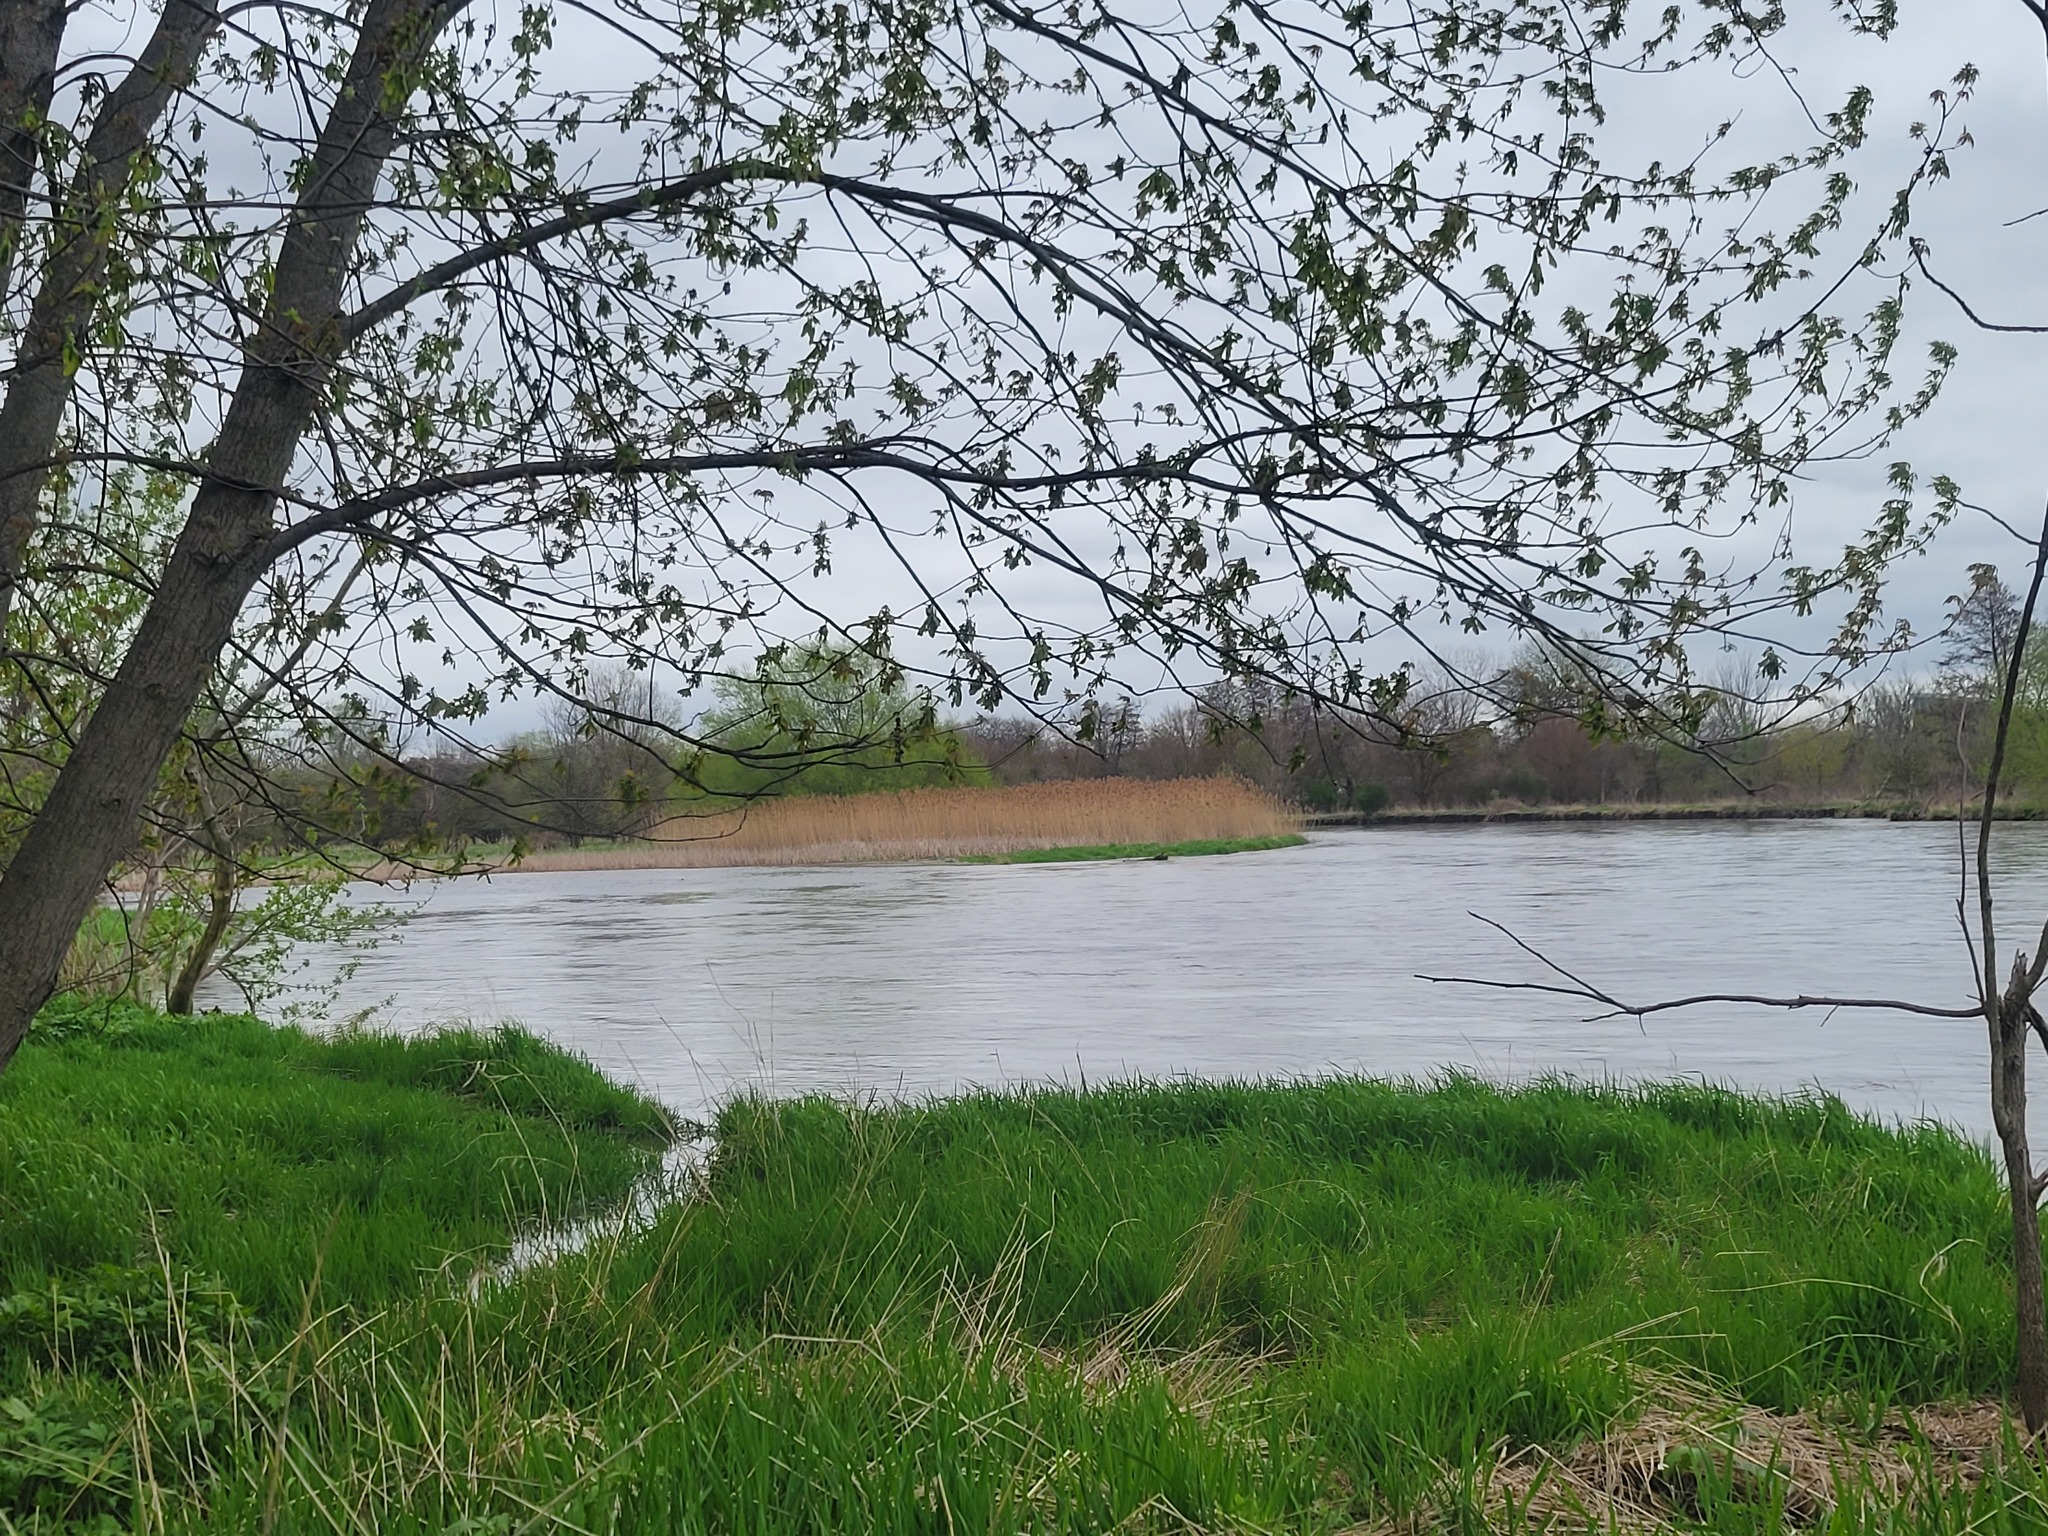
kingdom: Animalia
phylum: Chordata
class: Aves
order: Passeriformes
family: Corvidae
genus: Cyanocitta
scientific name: Cyanocitta cristata
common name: Blue jay
